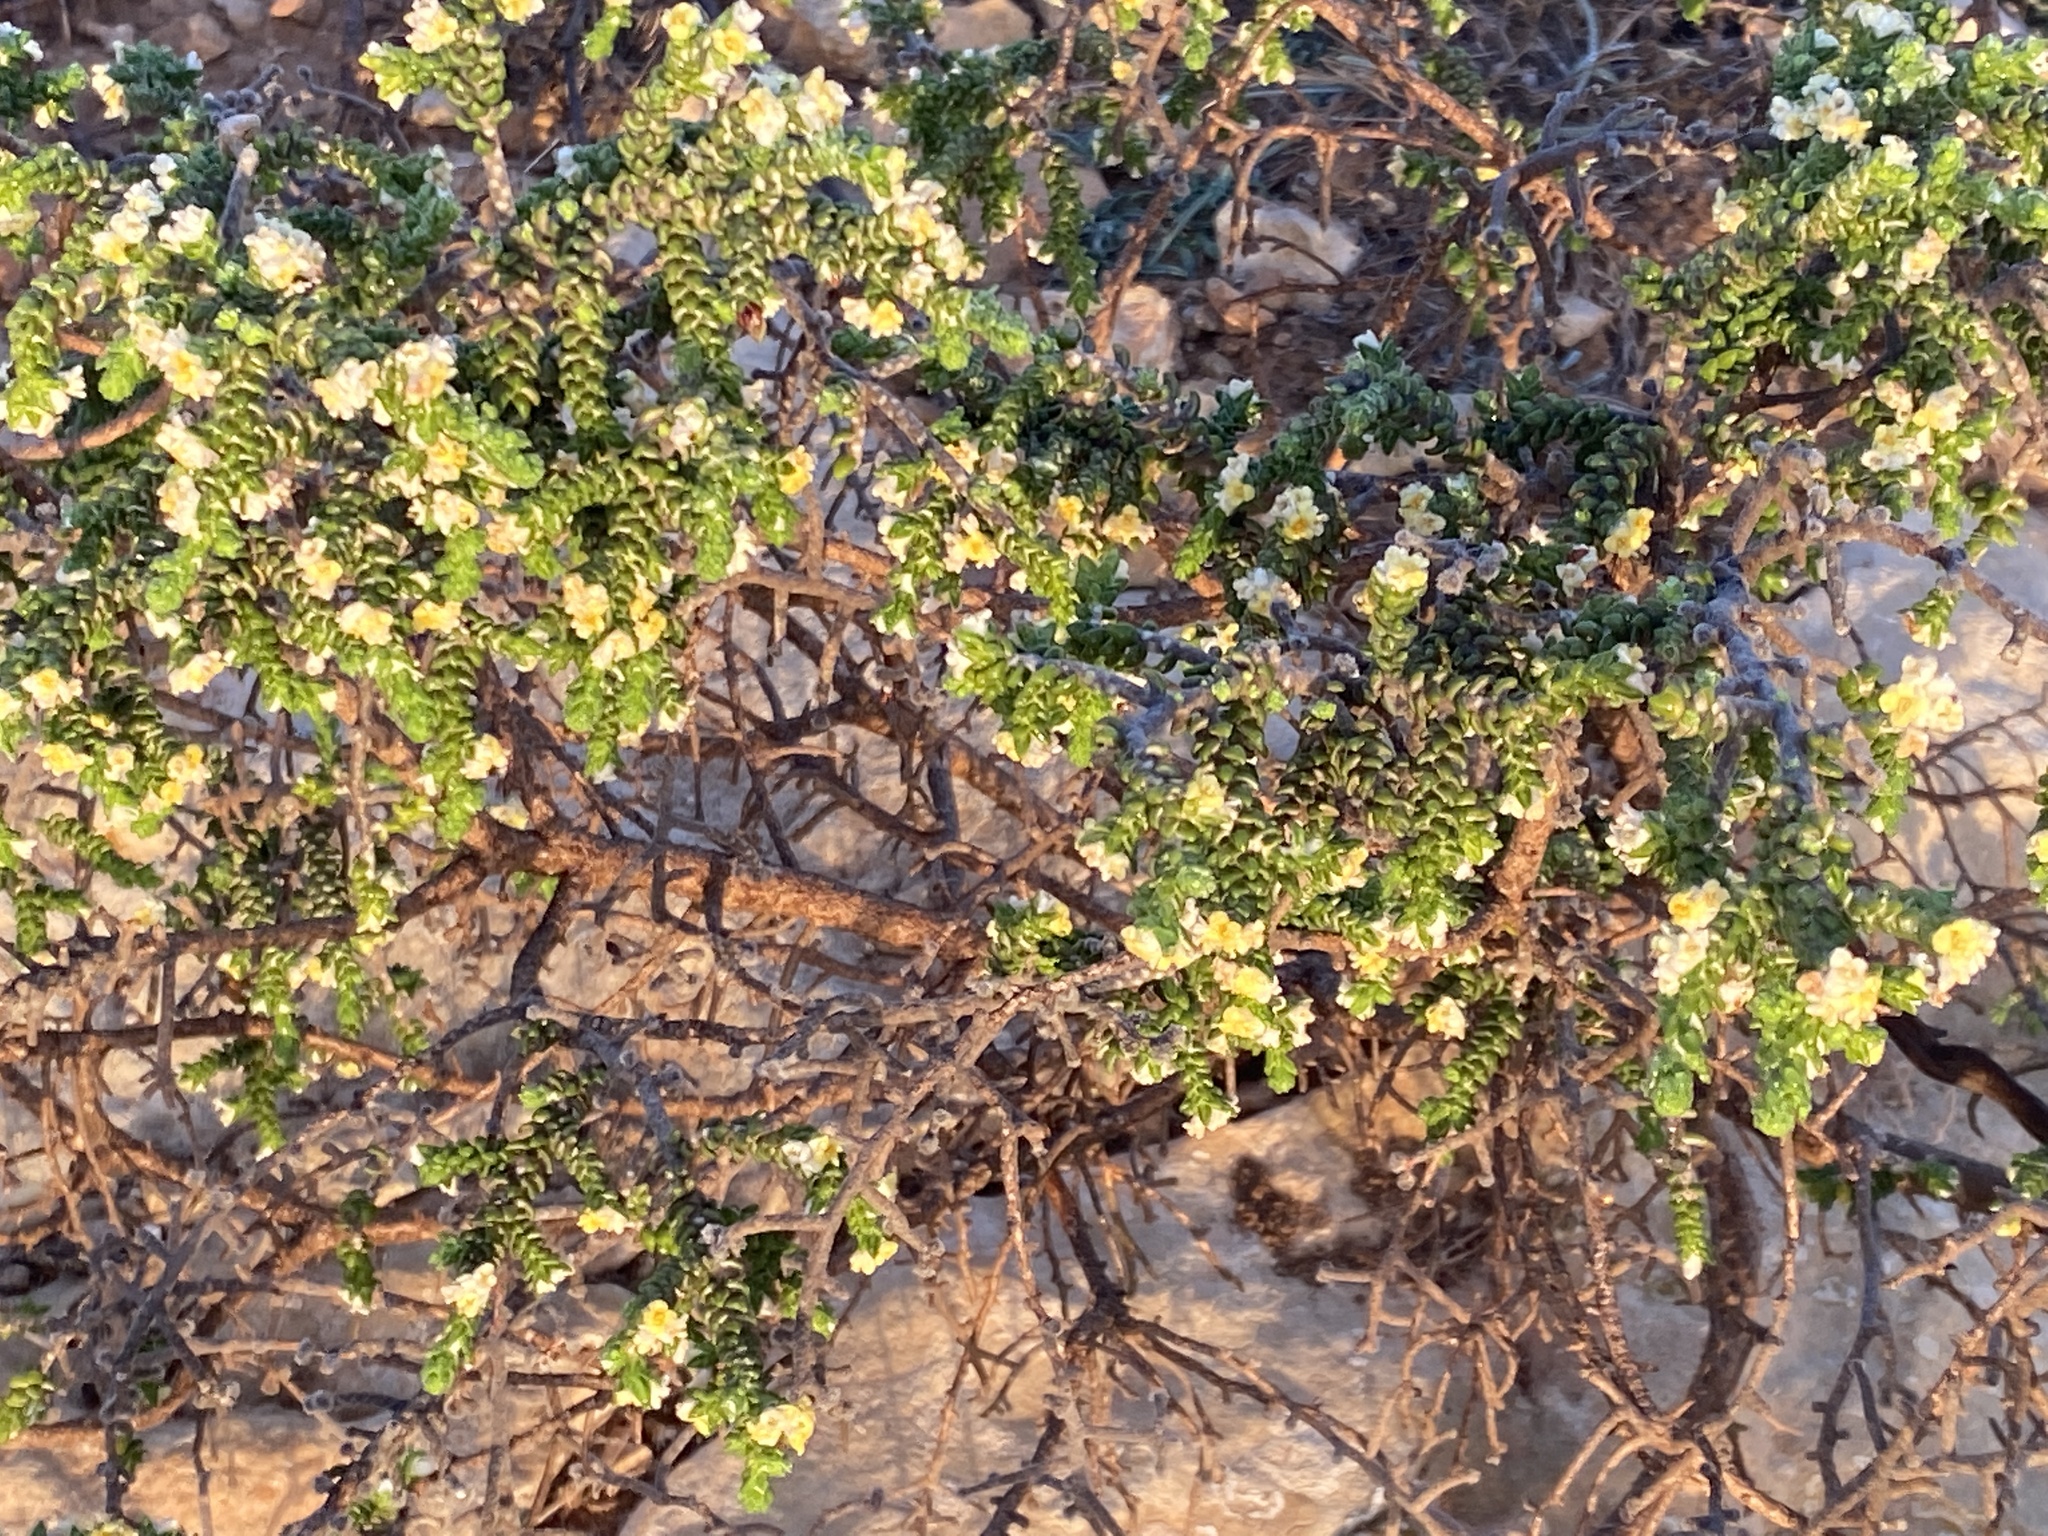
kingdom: Plantae
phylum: Tracheophyta
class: Magnoliopsida
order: Malvales
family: Thymelaeaceae
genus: Thymelaea
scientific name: Thymelaea hirsuta
